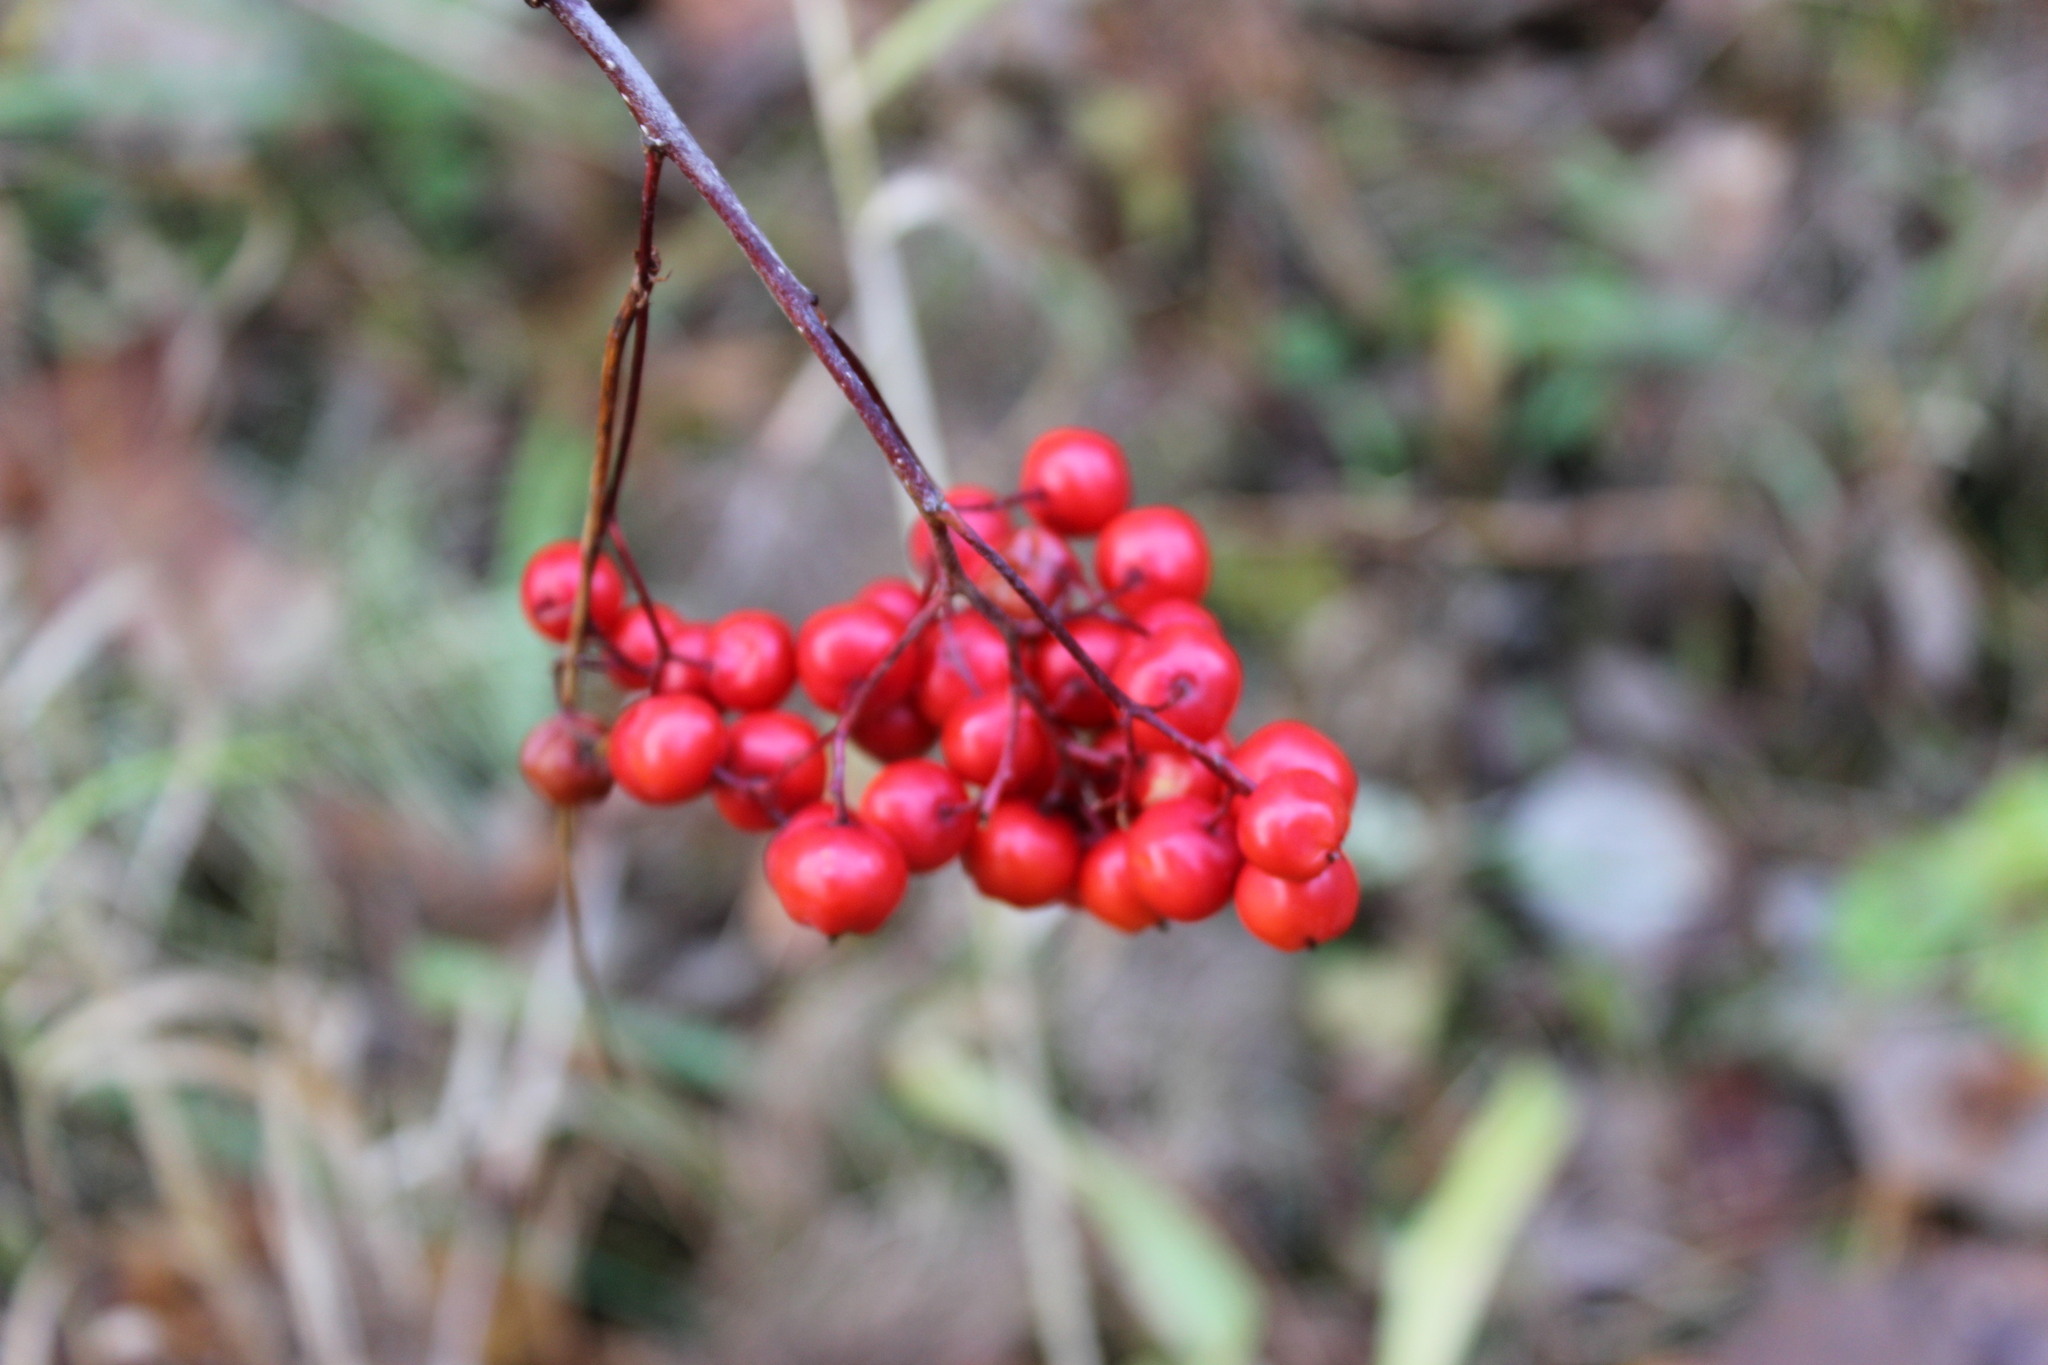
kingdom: Plantae
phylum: Tracheophyta
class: Magnoliopsida
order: Rosales
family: Rosaceae
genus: Sorbus
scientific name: Sorbus aucuparia
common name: Rowan
